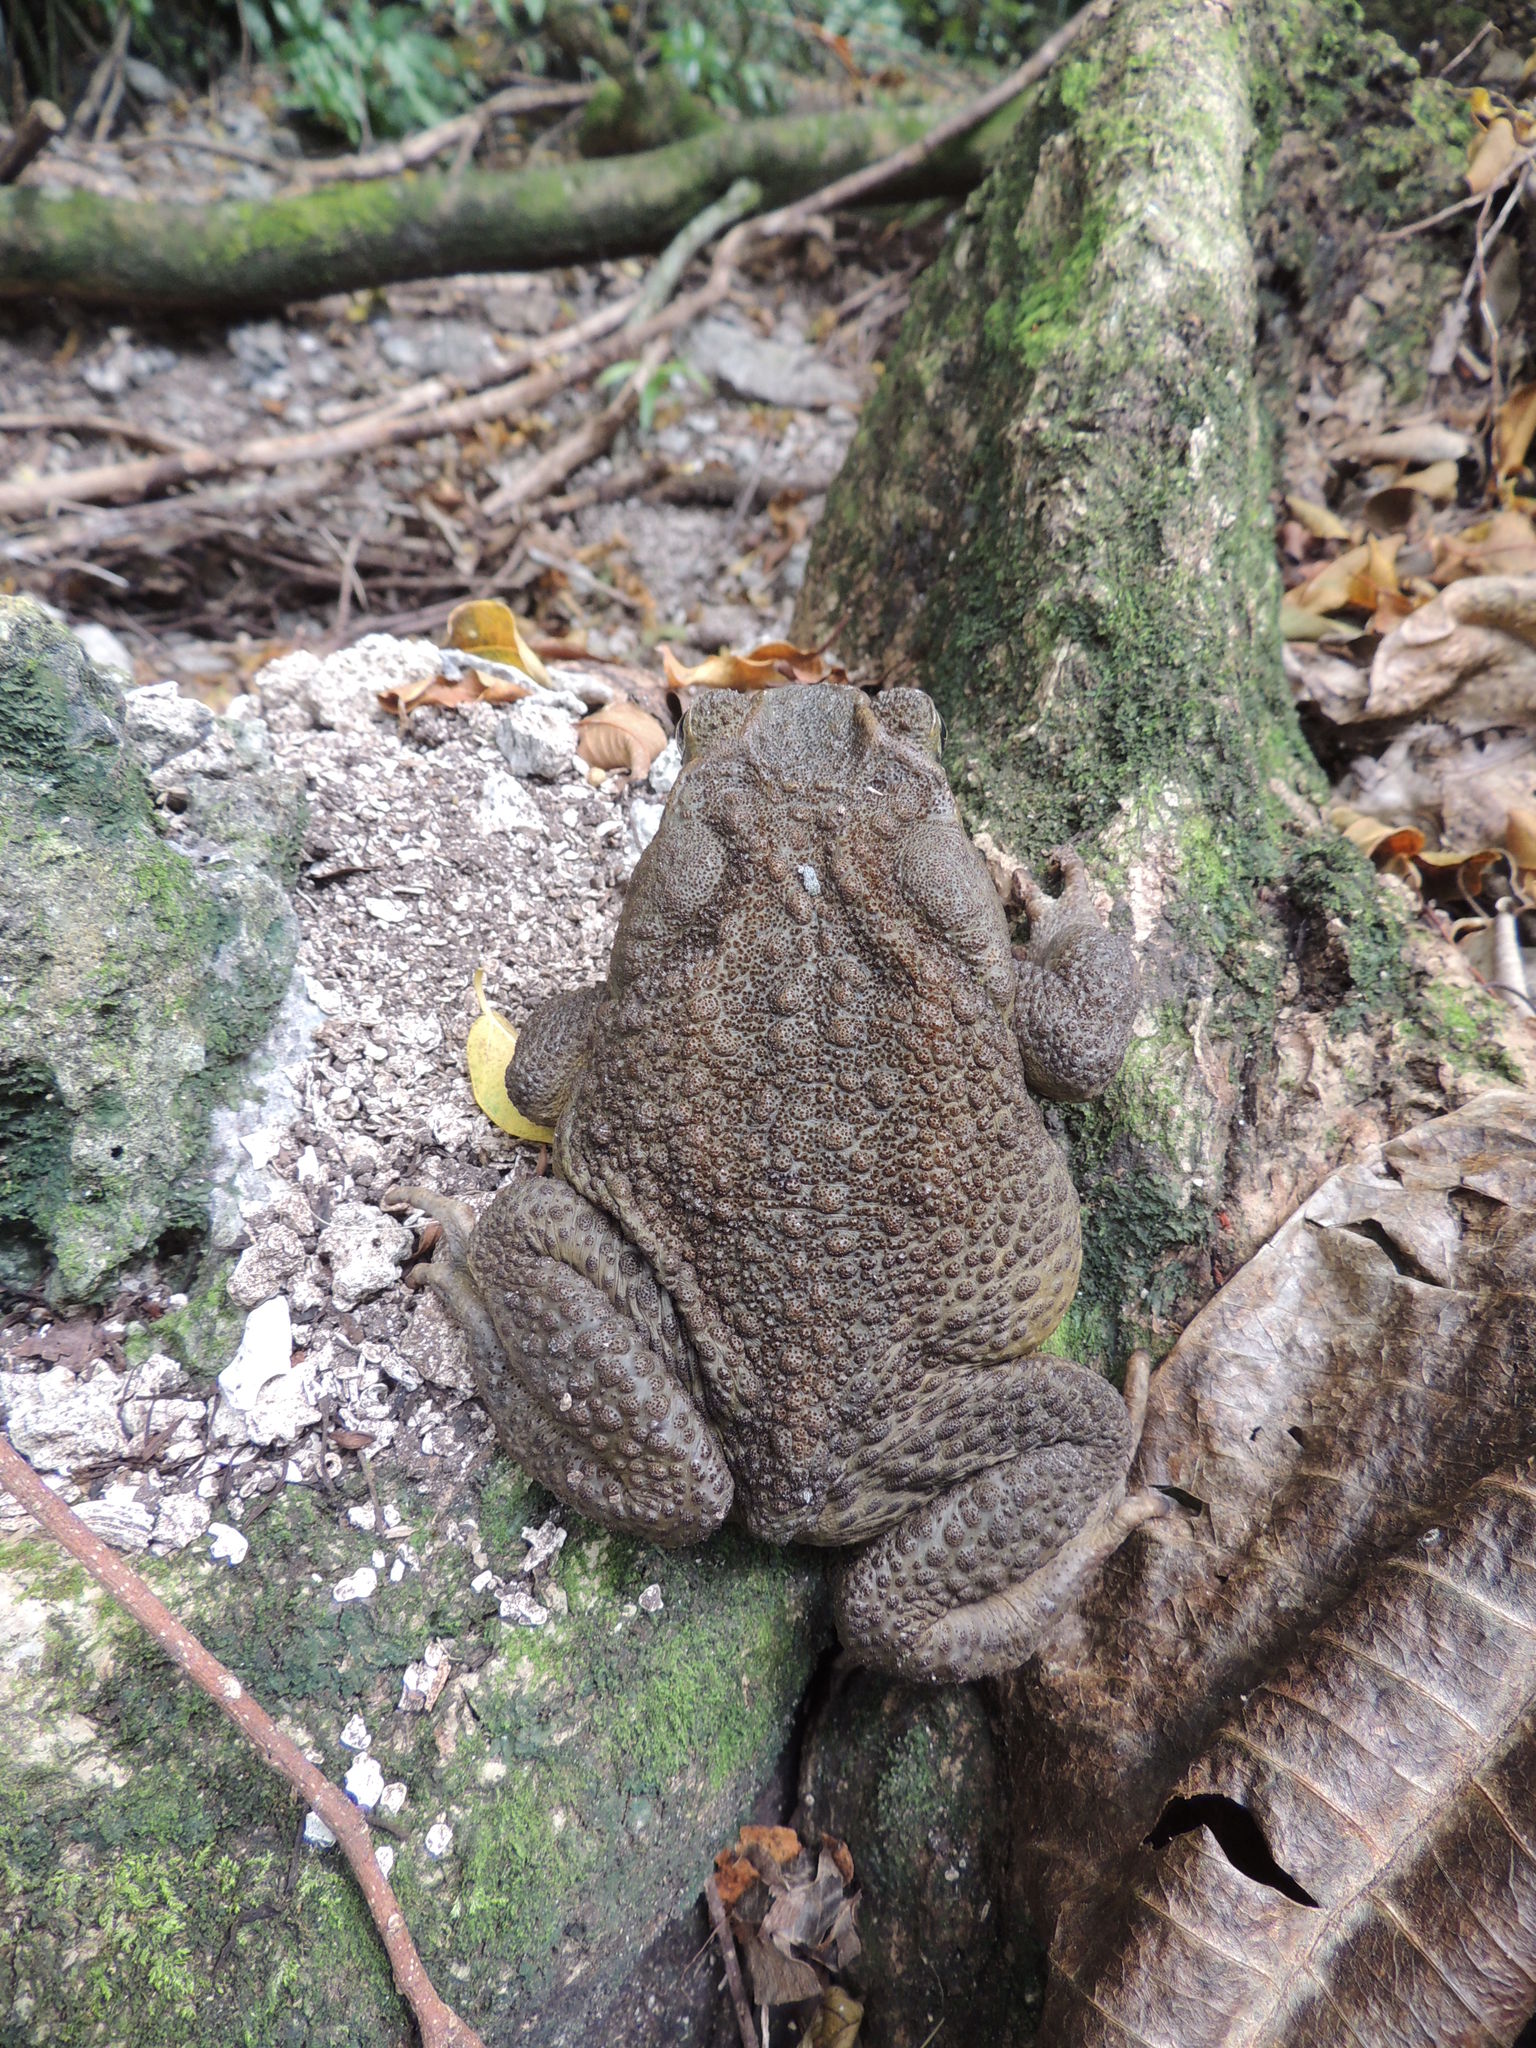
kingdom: Animalia
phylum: Chordata
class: Amphibia
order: Anura
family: Bufonidae
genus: Rhinella
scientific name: Rhinella marina
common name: Cane toad
